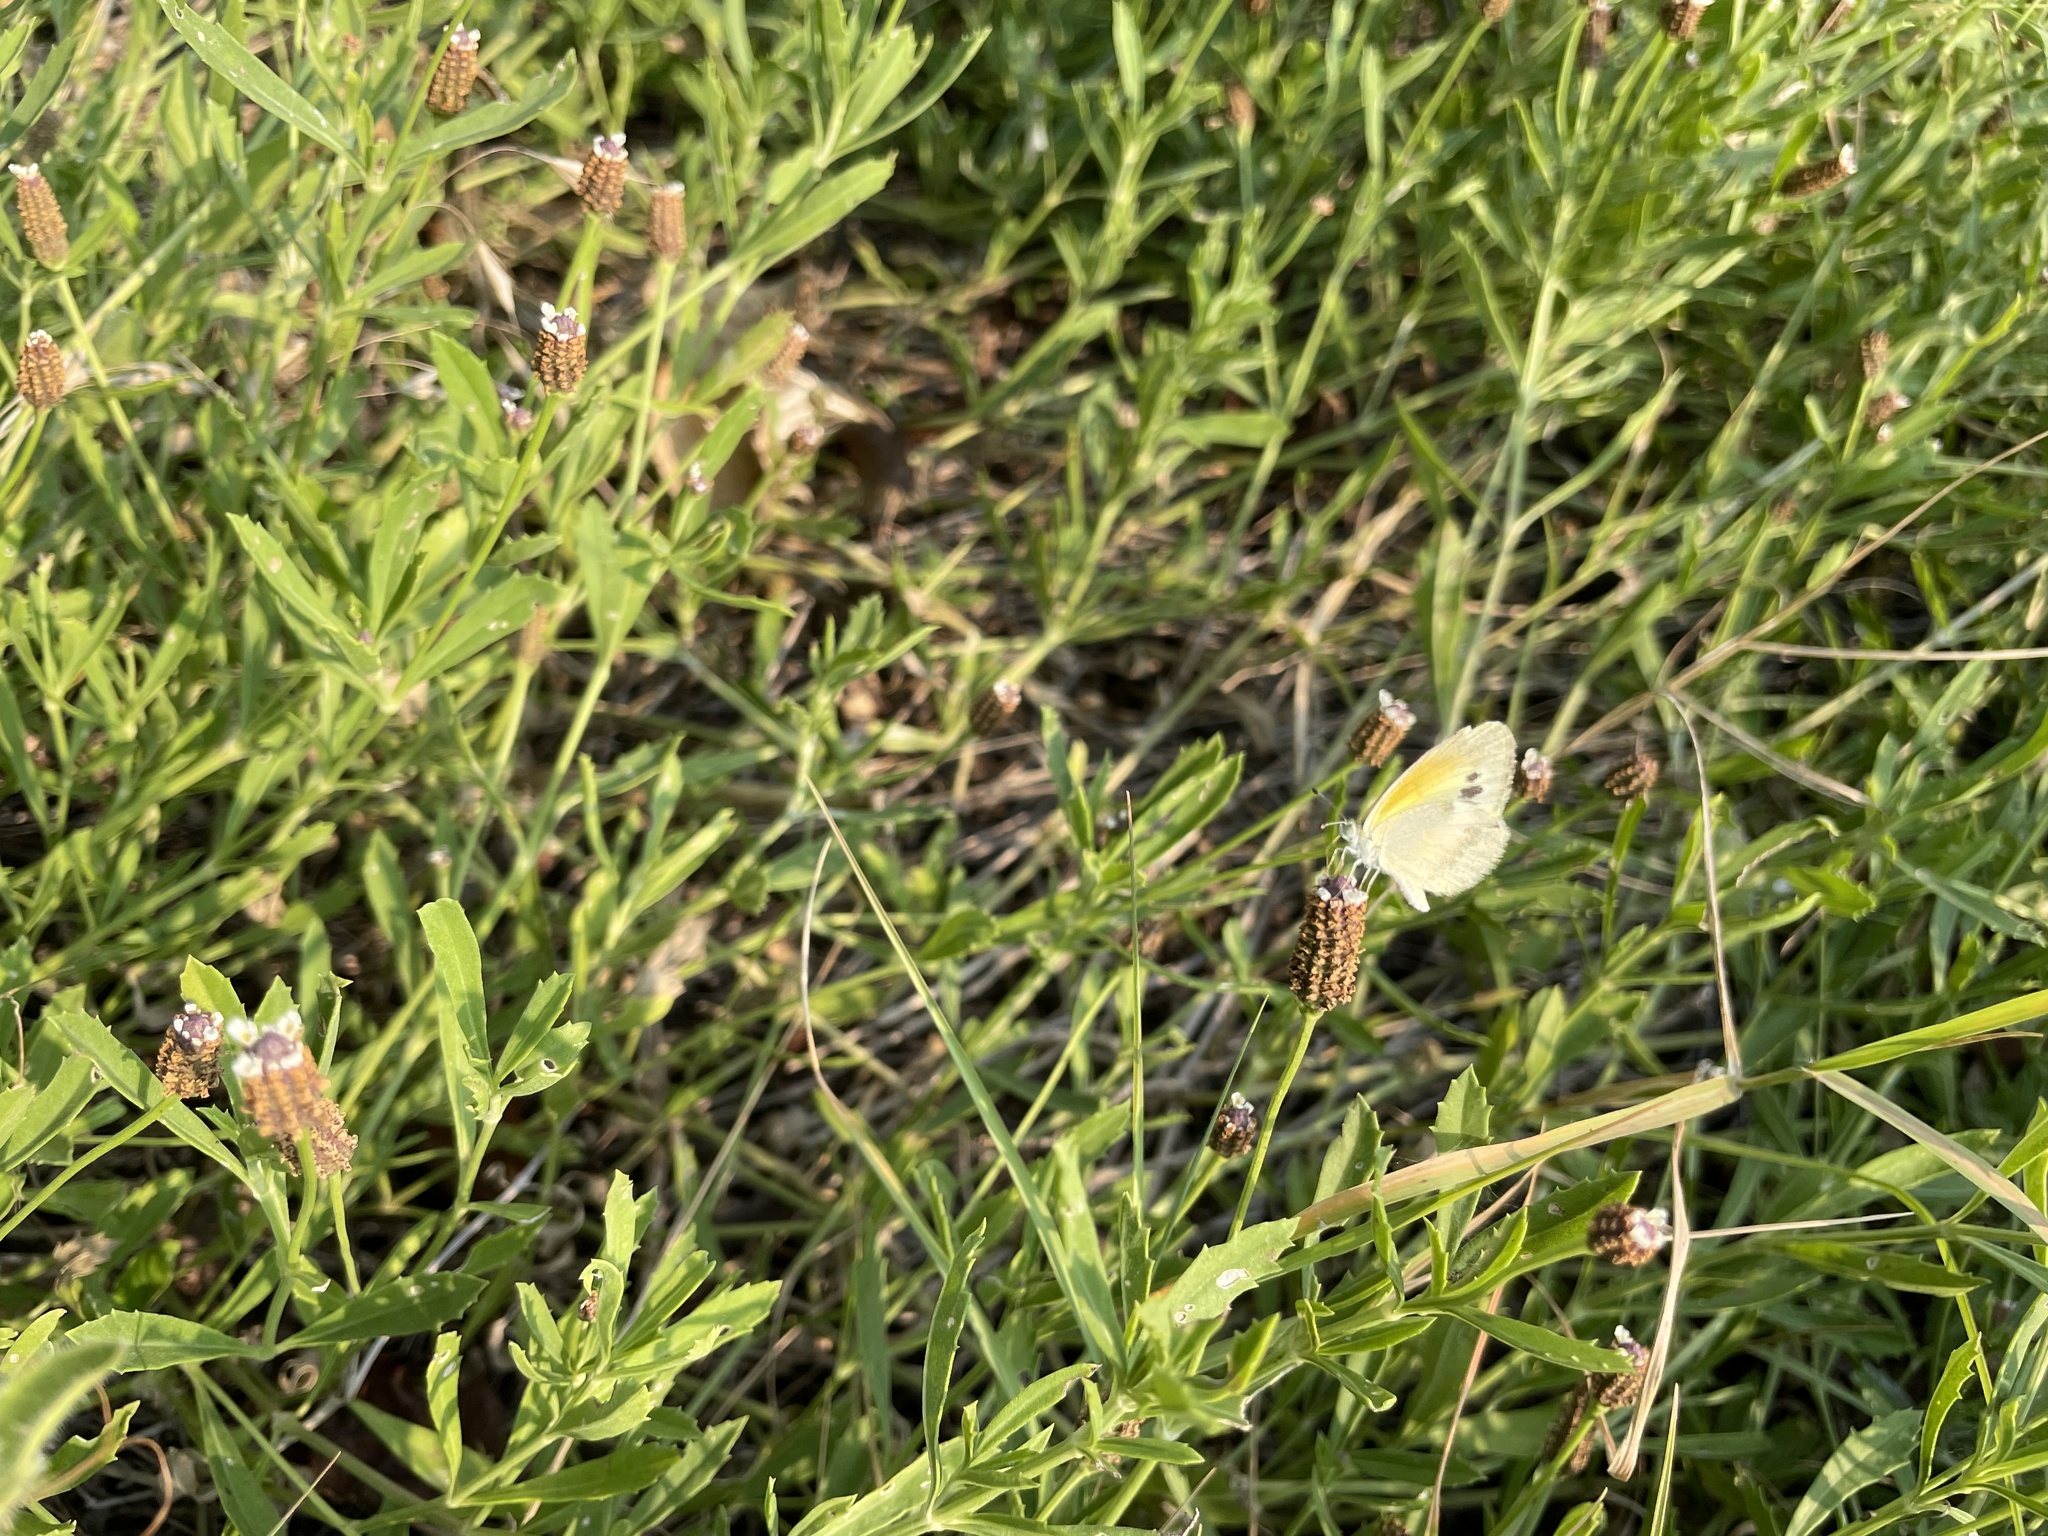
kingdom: Animalia
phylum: Arthropoda
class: Insecta
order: Lepidoptera
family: Pieridae
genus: Nathalis
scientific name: Nathalis iole
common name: Dainty sulphur
